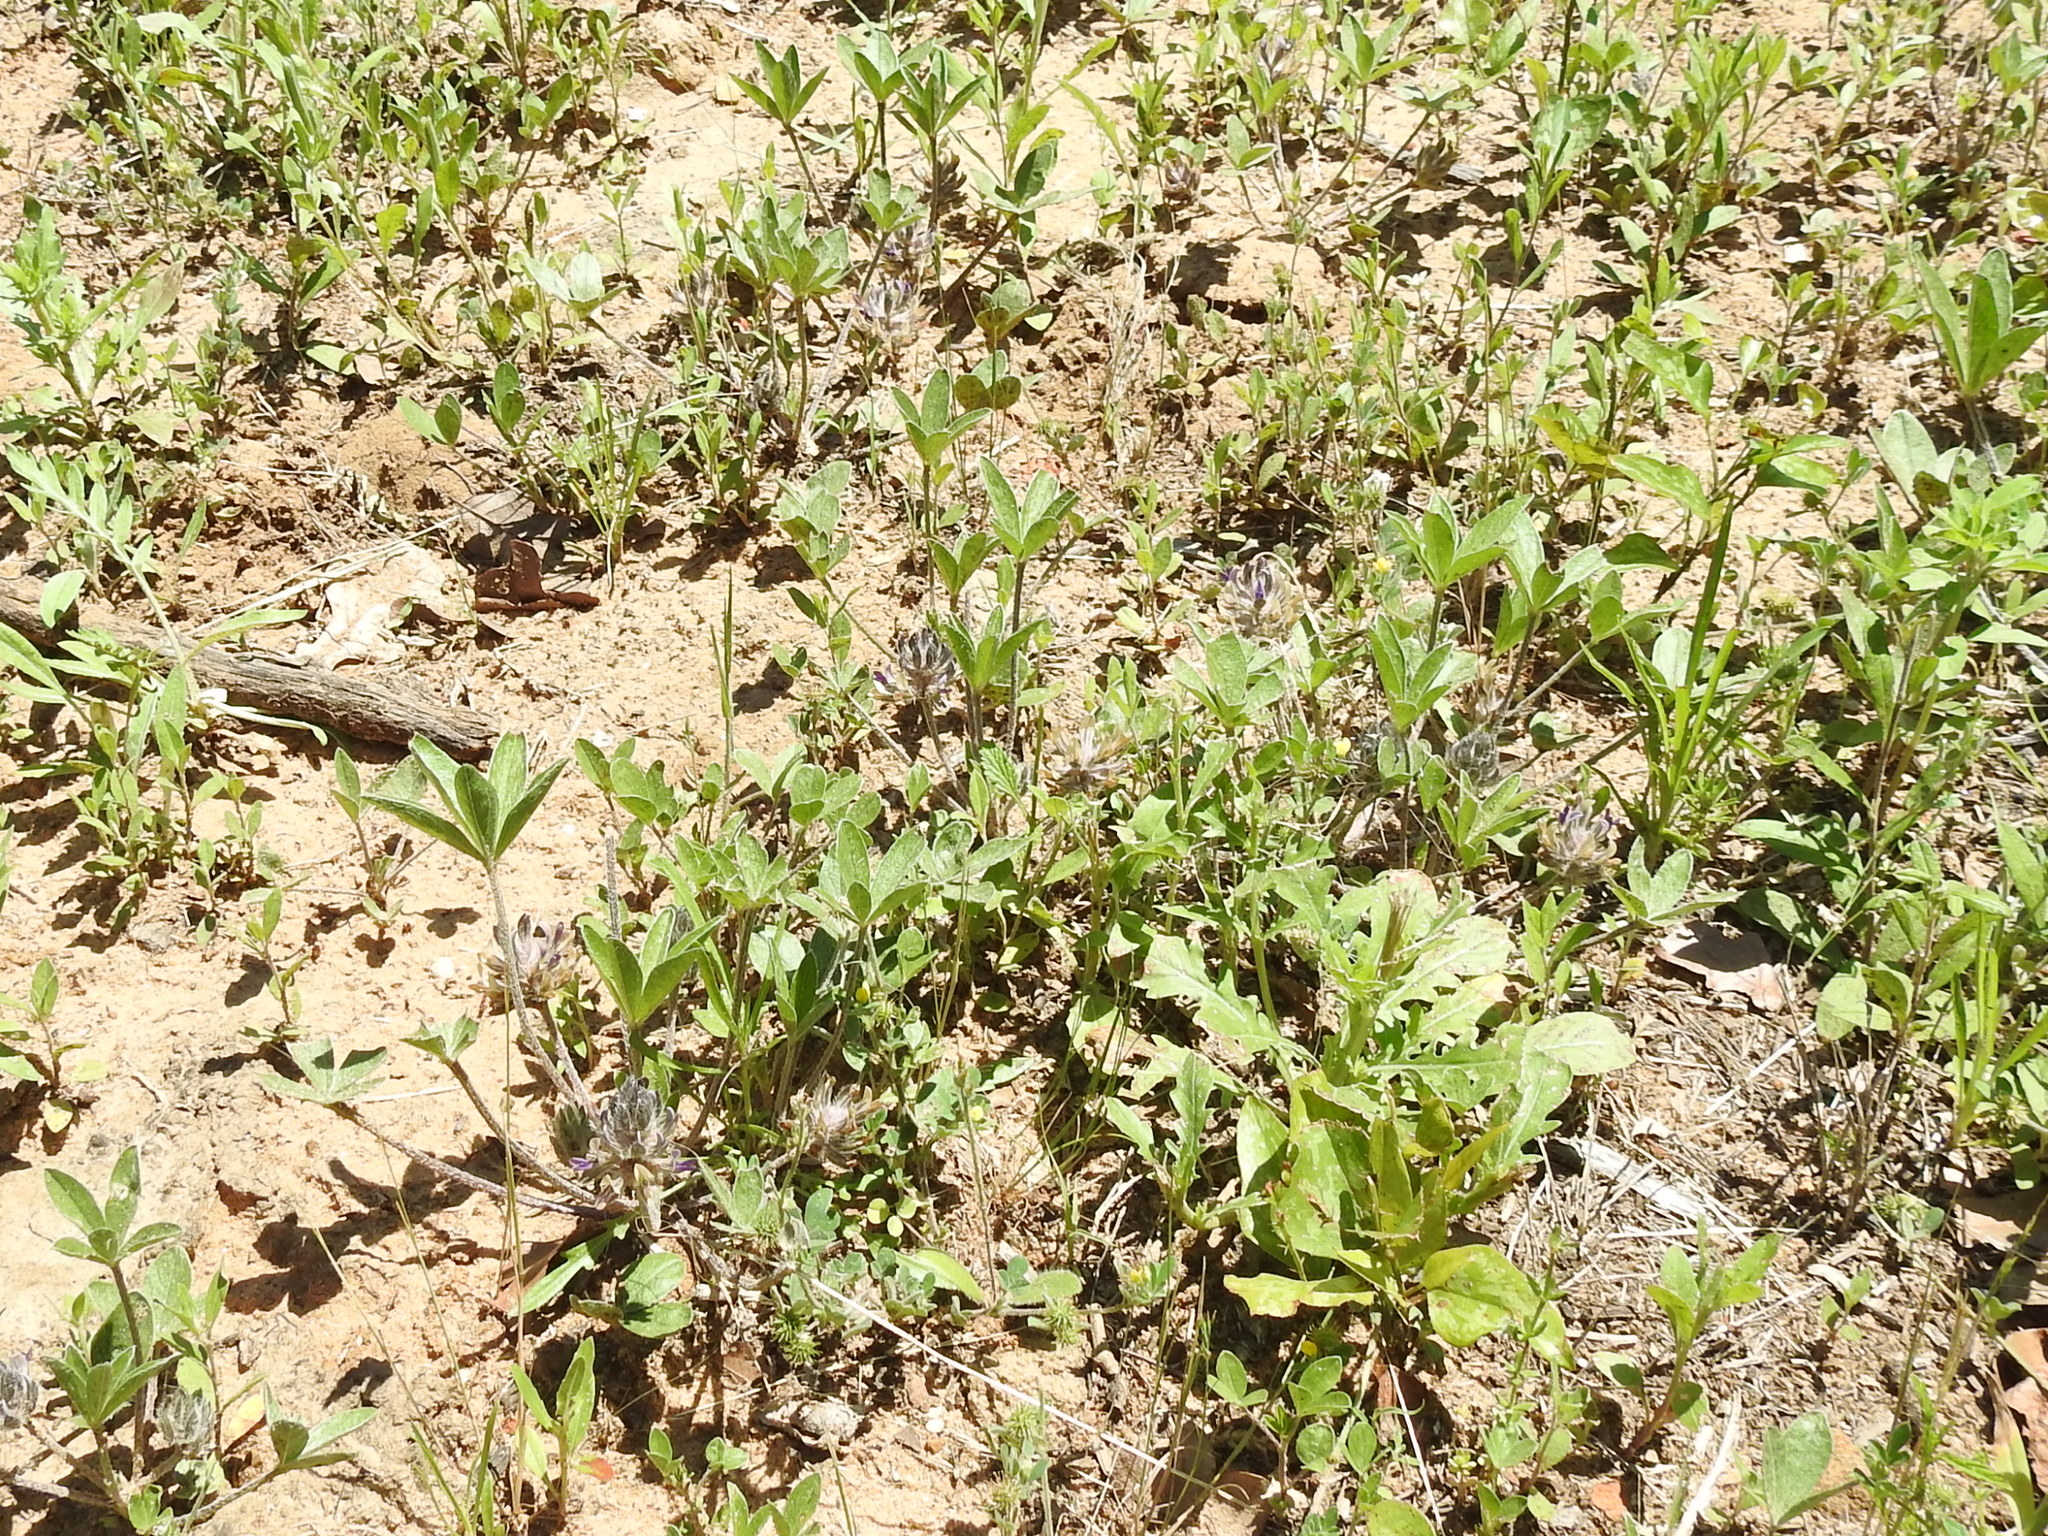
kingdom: Plantae
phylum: Tracheophyta
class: Magnoliopsida
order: Fabales
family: Fabaceae
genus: Pediomelum
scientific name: Pediomelum hypogaeum
